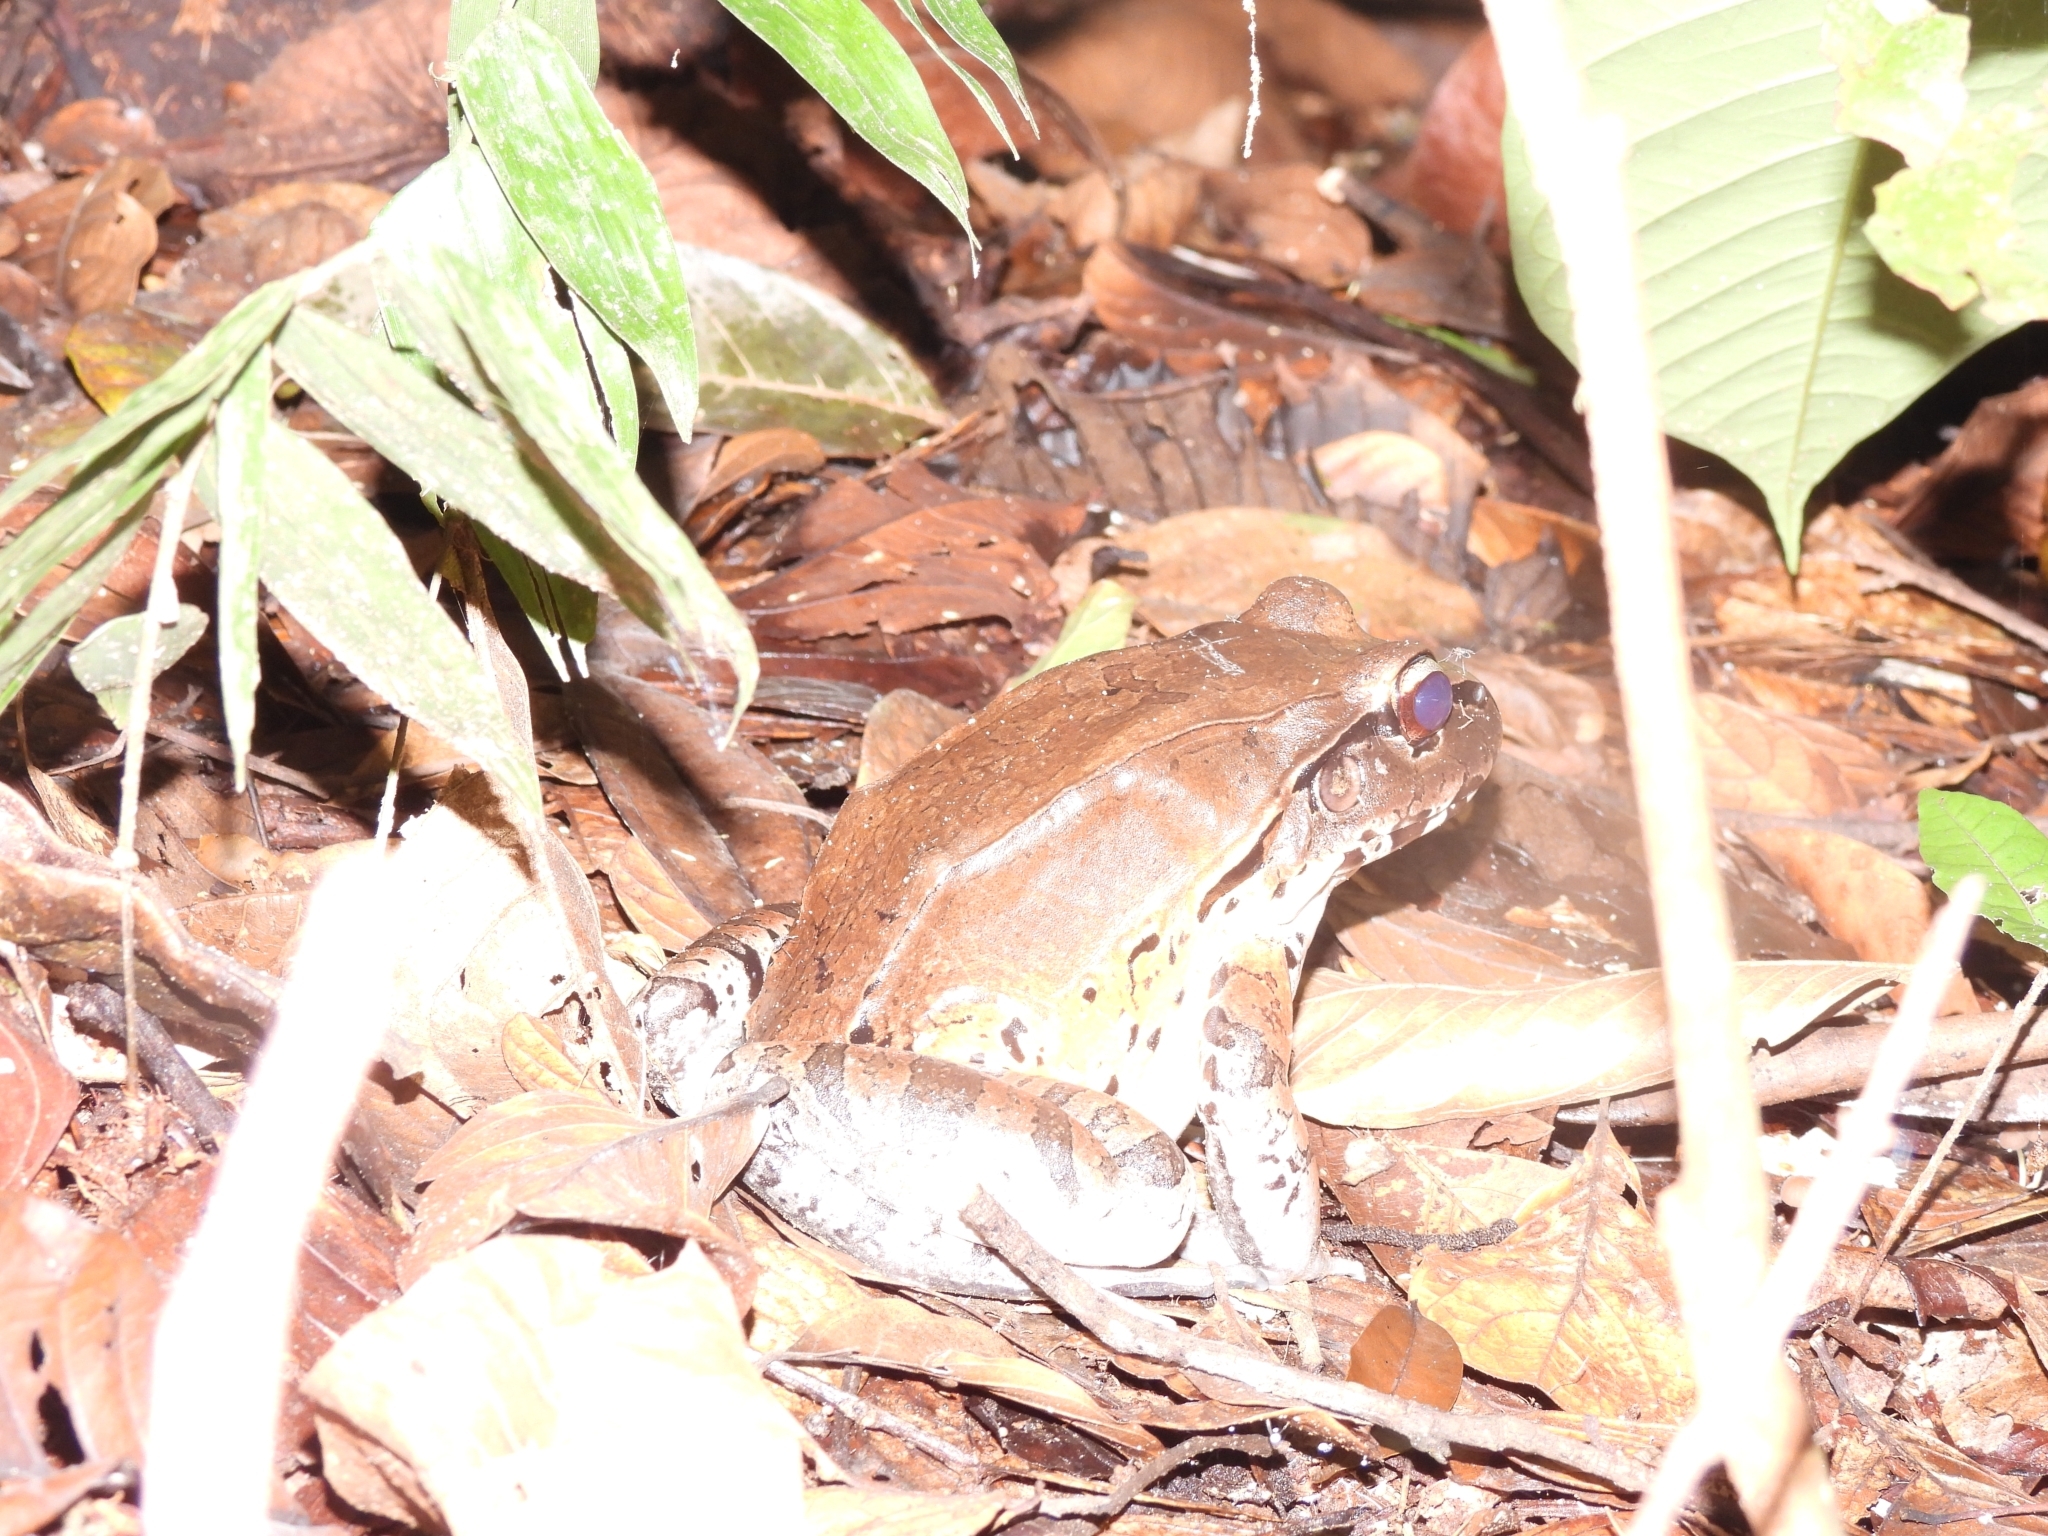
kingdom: Animalia
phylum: Chordata
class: Amphibia
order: Anura
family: Leptodactylidae
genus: Leptodactylus
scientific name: Leptodactylus pentadactylus
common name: Smoky jungle frog
